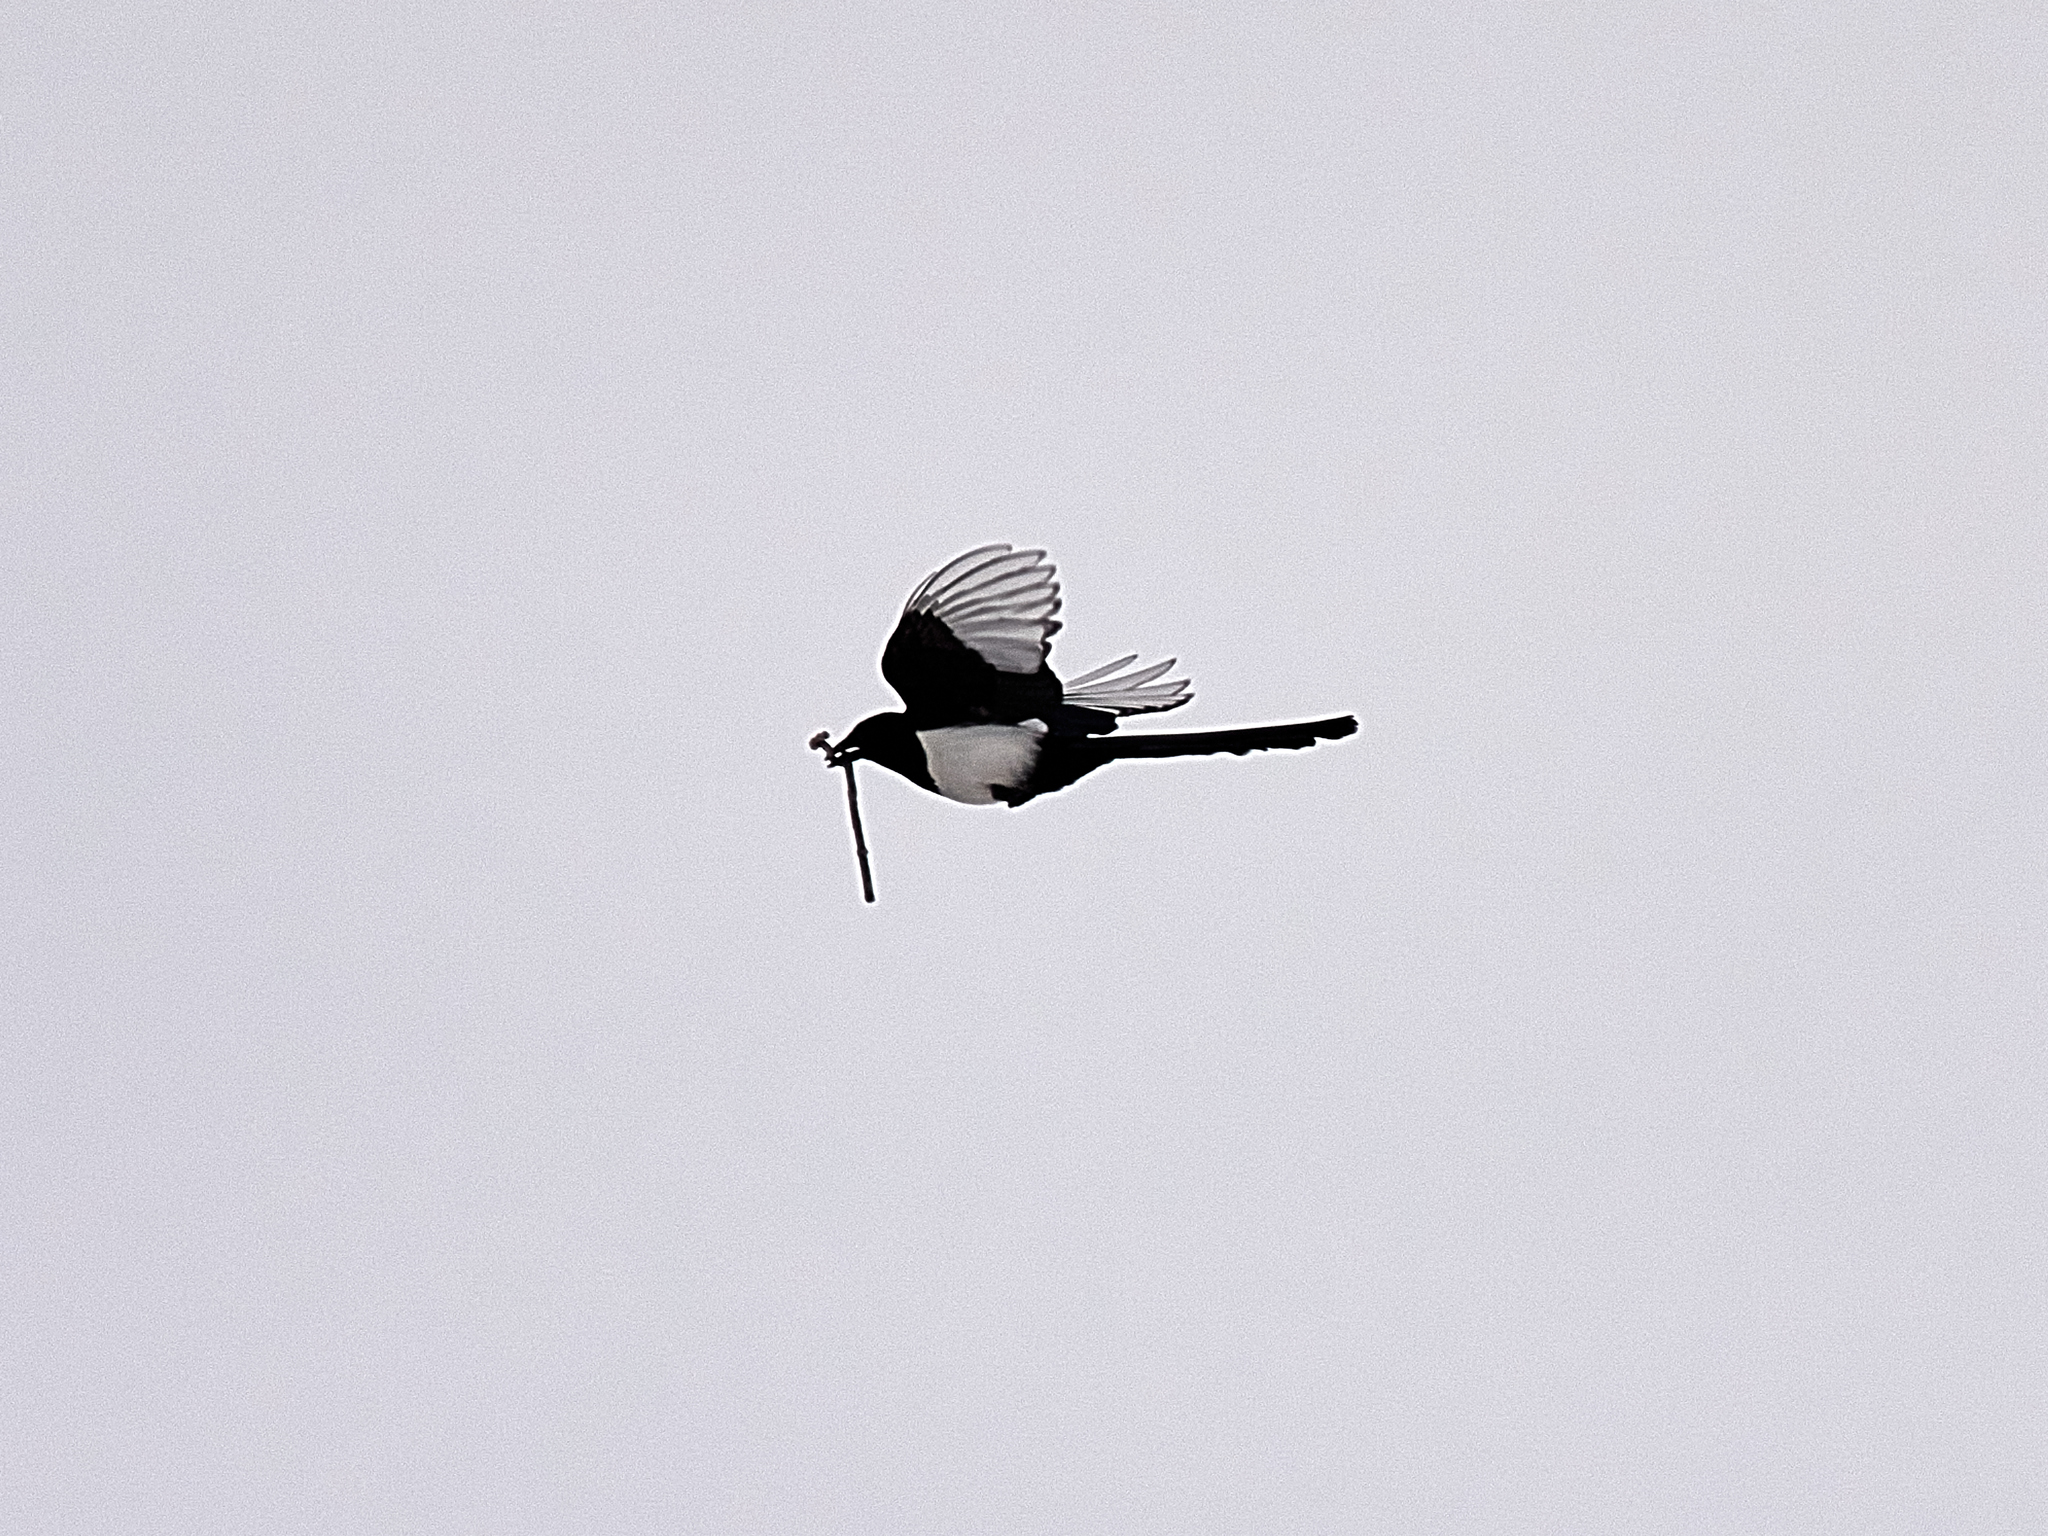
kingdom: Animalia
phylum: Chordata
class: Aves
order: Passeriformes
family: Corvidae
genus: Pica
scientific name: Pica pica
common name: Eurasian magpie
